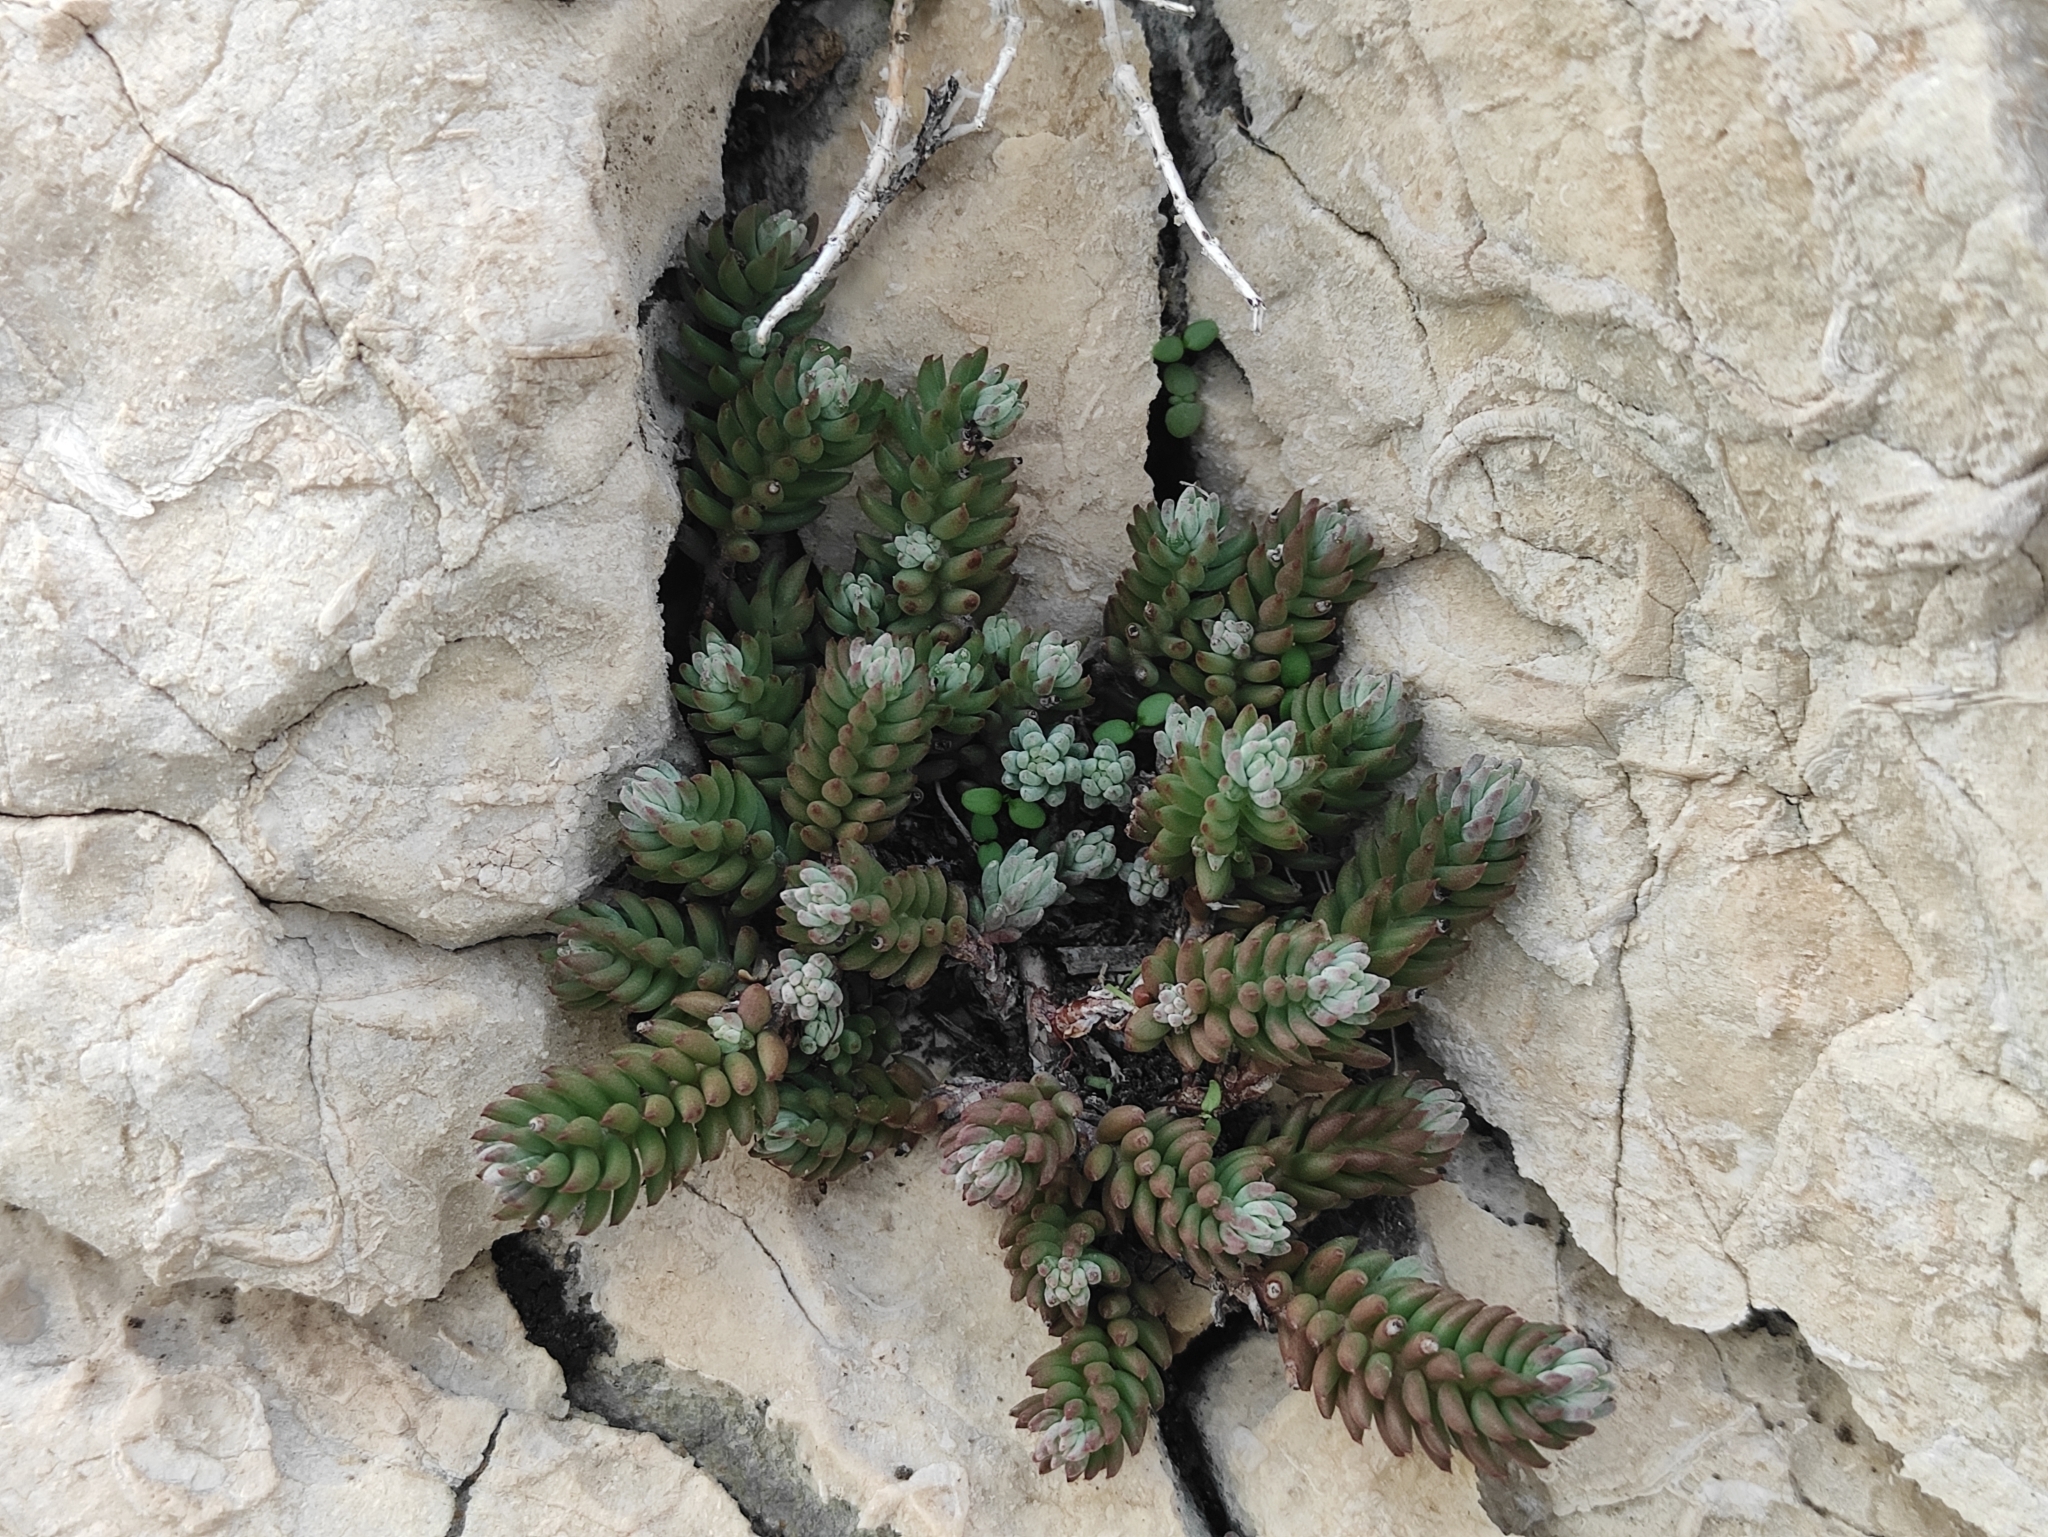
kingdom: Plantae
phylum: Tracheophyta
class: Magnoliopsida
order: Saxifragales
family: Crassulaceae
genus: Petrosedum
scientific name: Petrosedum ochroleucum
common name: European stonecrop
